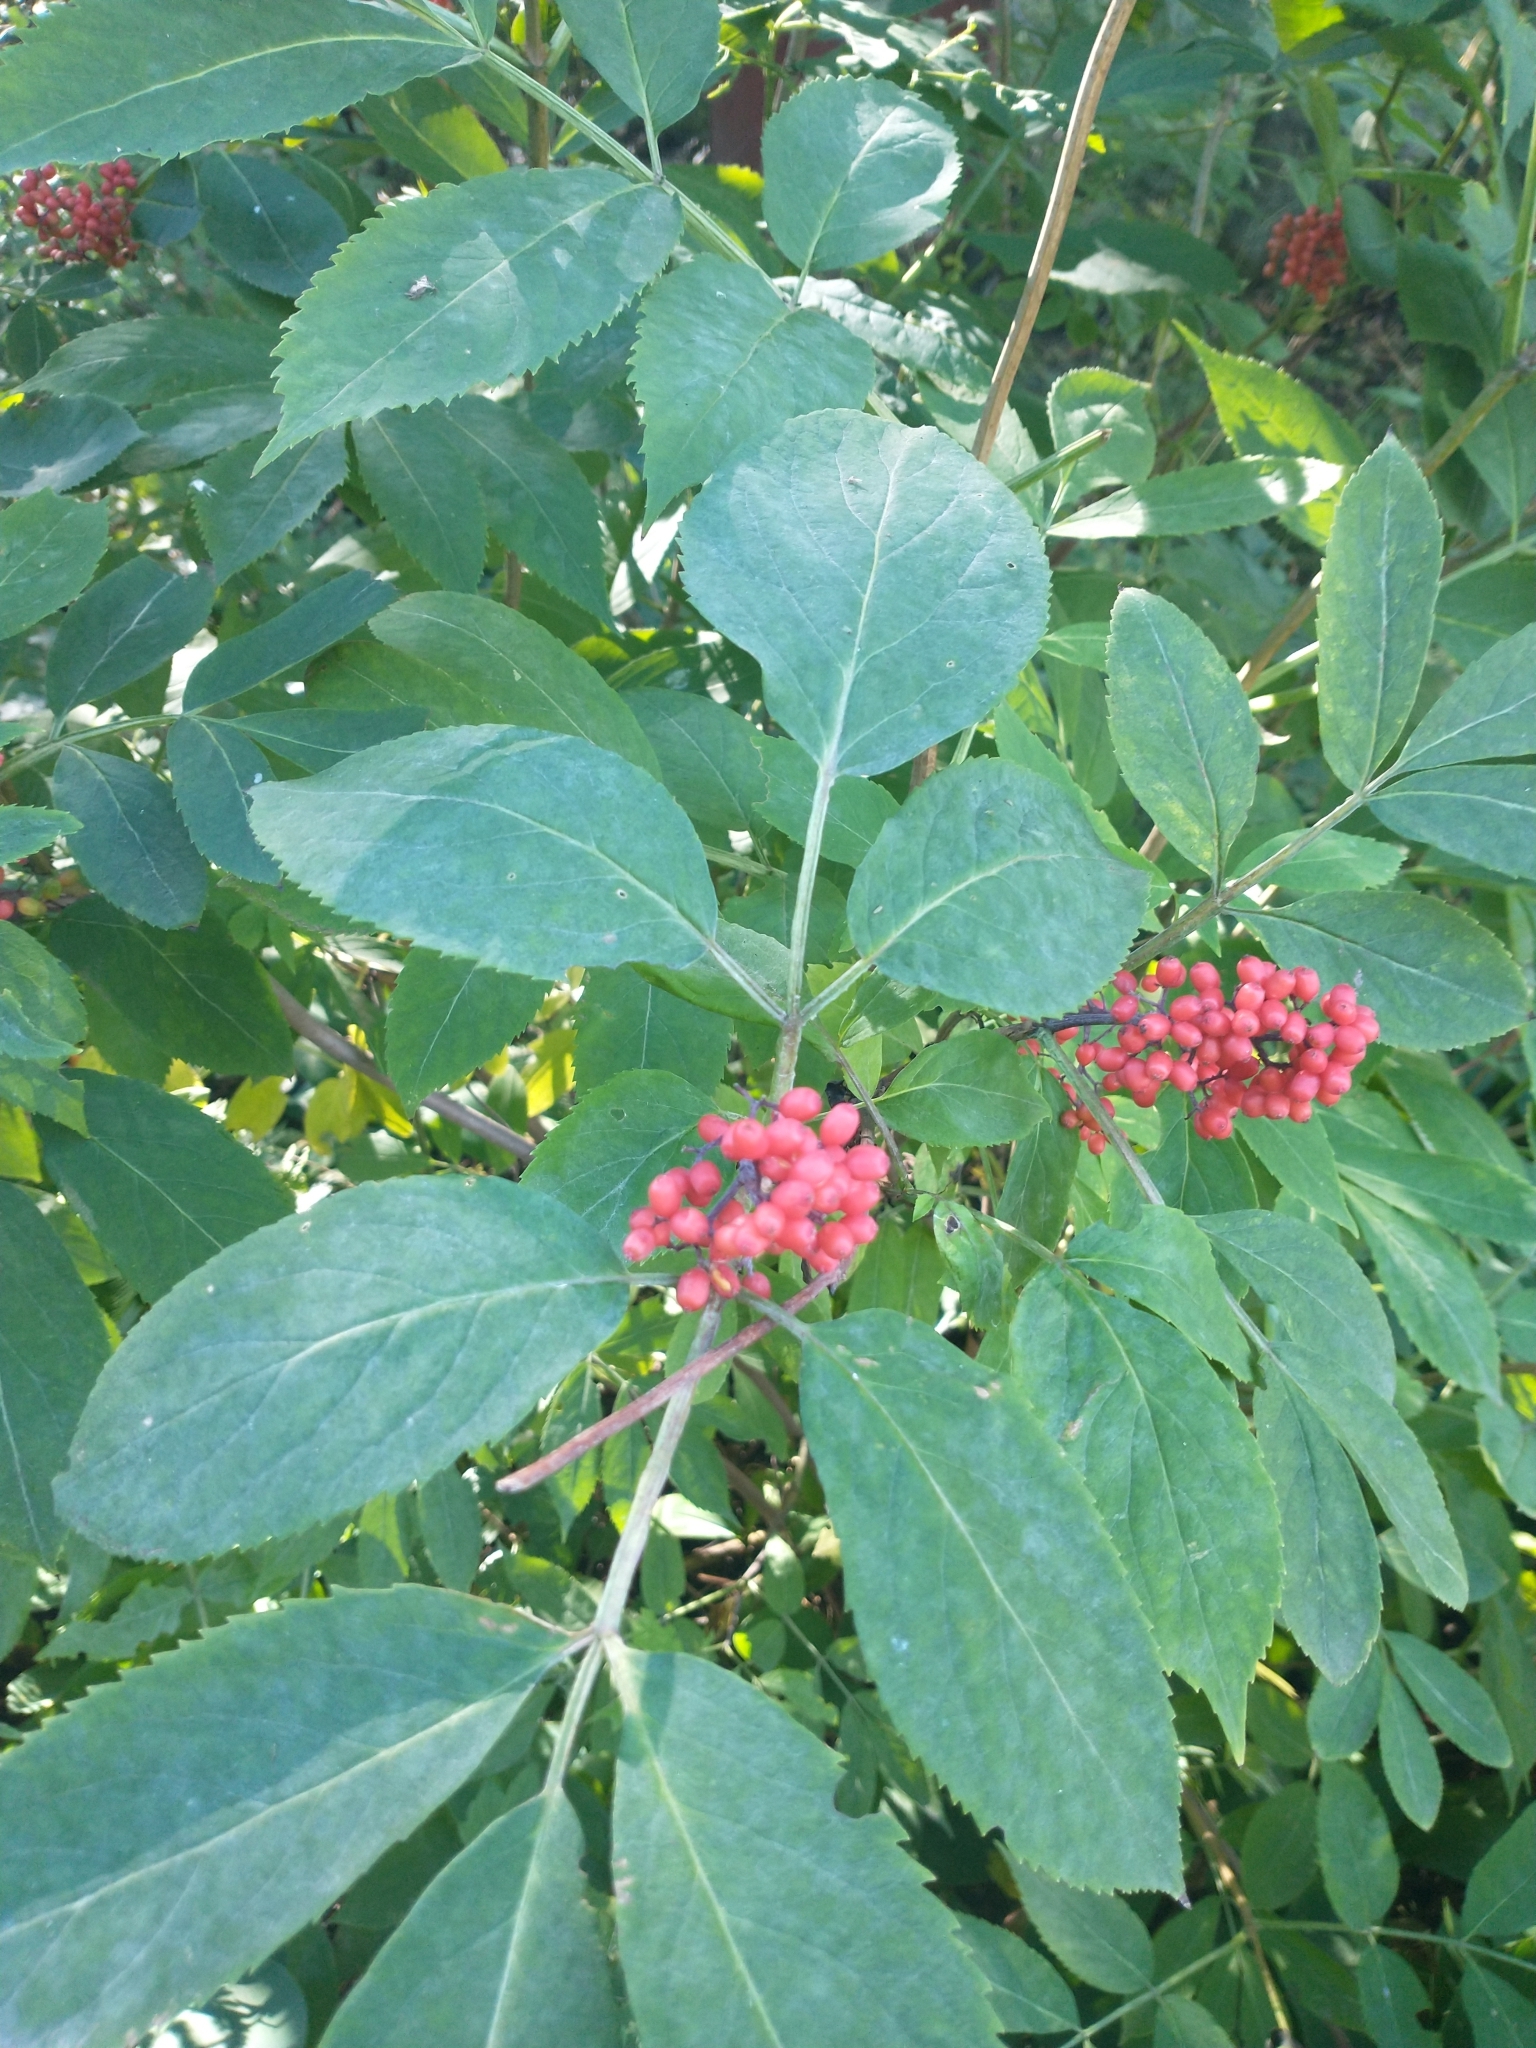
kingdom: Plantae
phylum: Tracheophyta
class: Magnoliopsida
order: Dipsacales
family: Viburnaceae
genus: Sambucus
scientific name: Sambucus racemosa
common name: Red-berried elder
